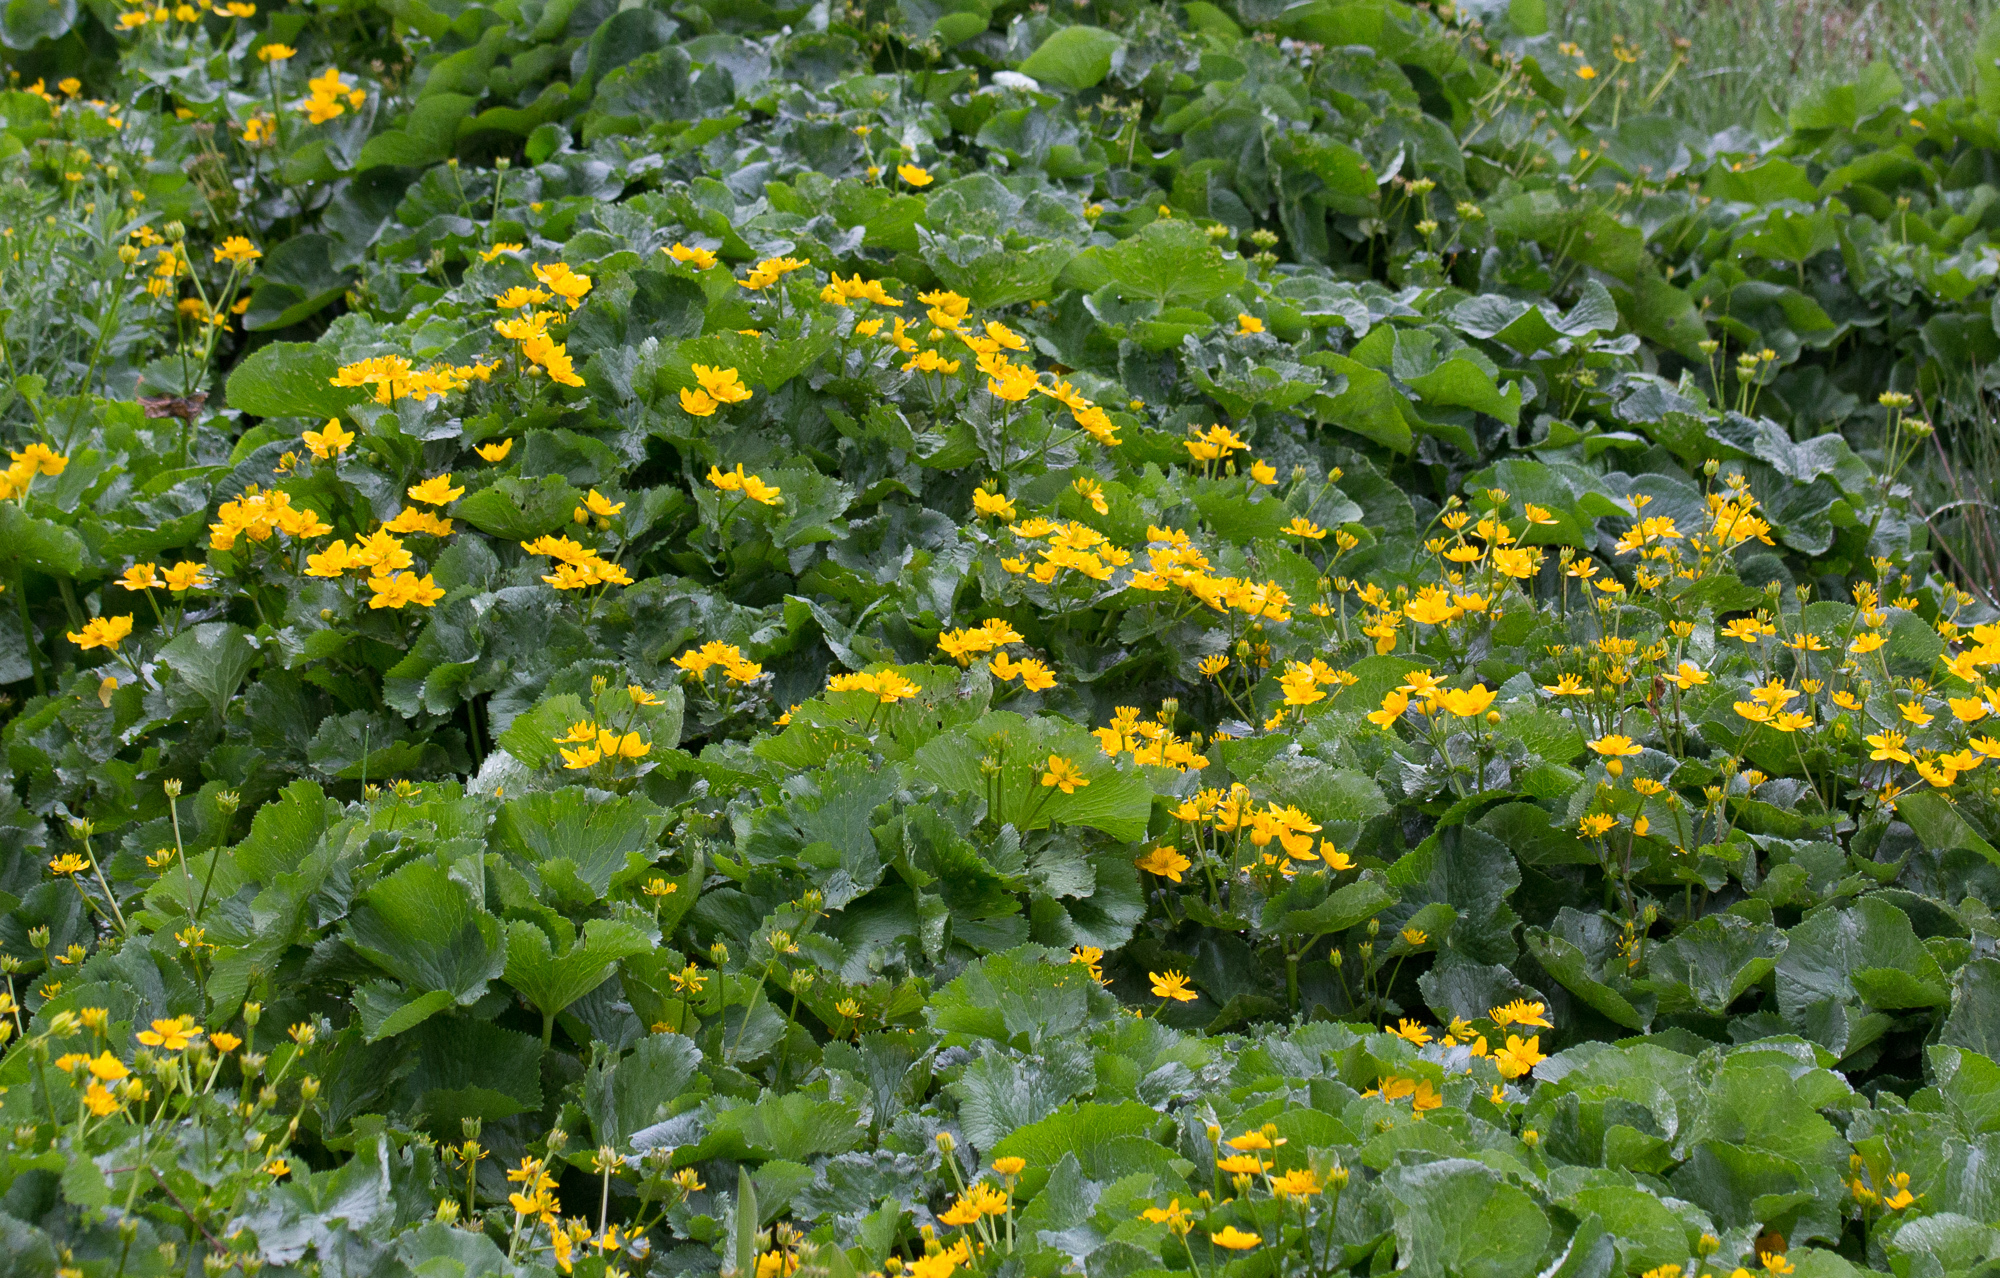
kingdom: Plantae
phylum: Tracheophyta
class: Magnoliopsida
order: Ranunculales
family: Ranunculaceae
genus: Caltha
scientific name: Caltha palustris
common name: Marsh marigold
